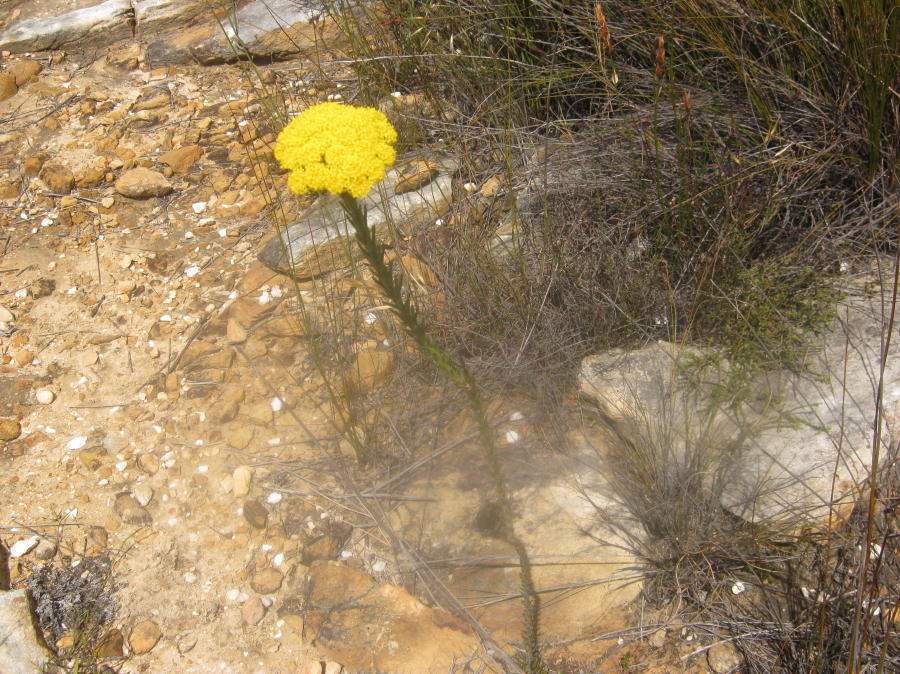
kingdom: Plantae
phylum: Tracheophyta
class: Magnoliopsida
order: Asterales
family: Asteraceae
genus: Athanasia
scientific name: Athanasia linifolia
